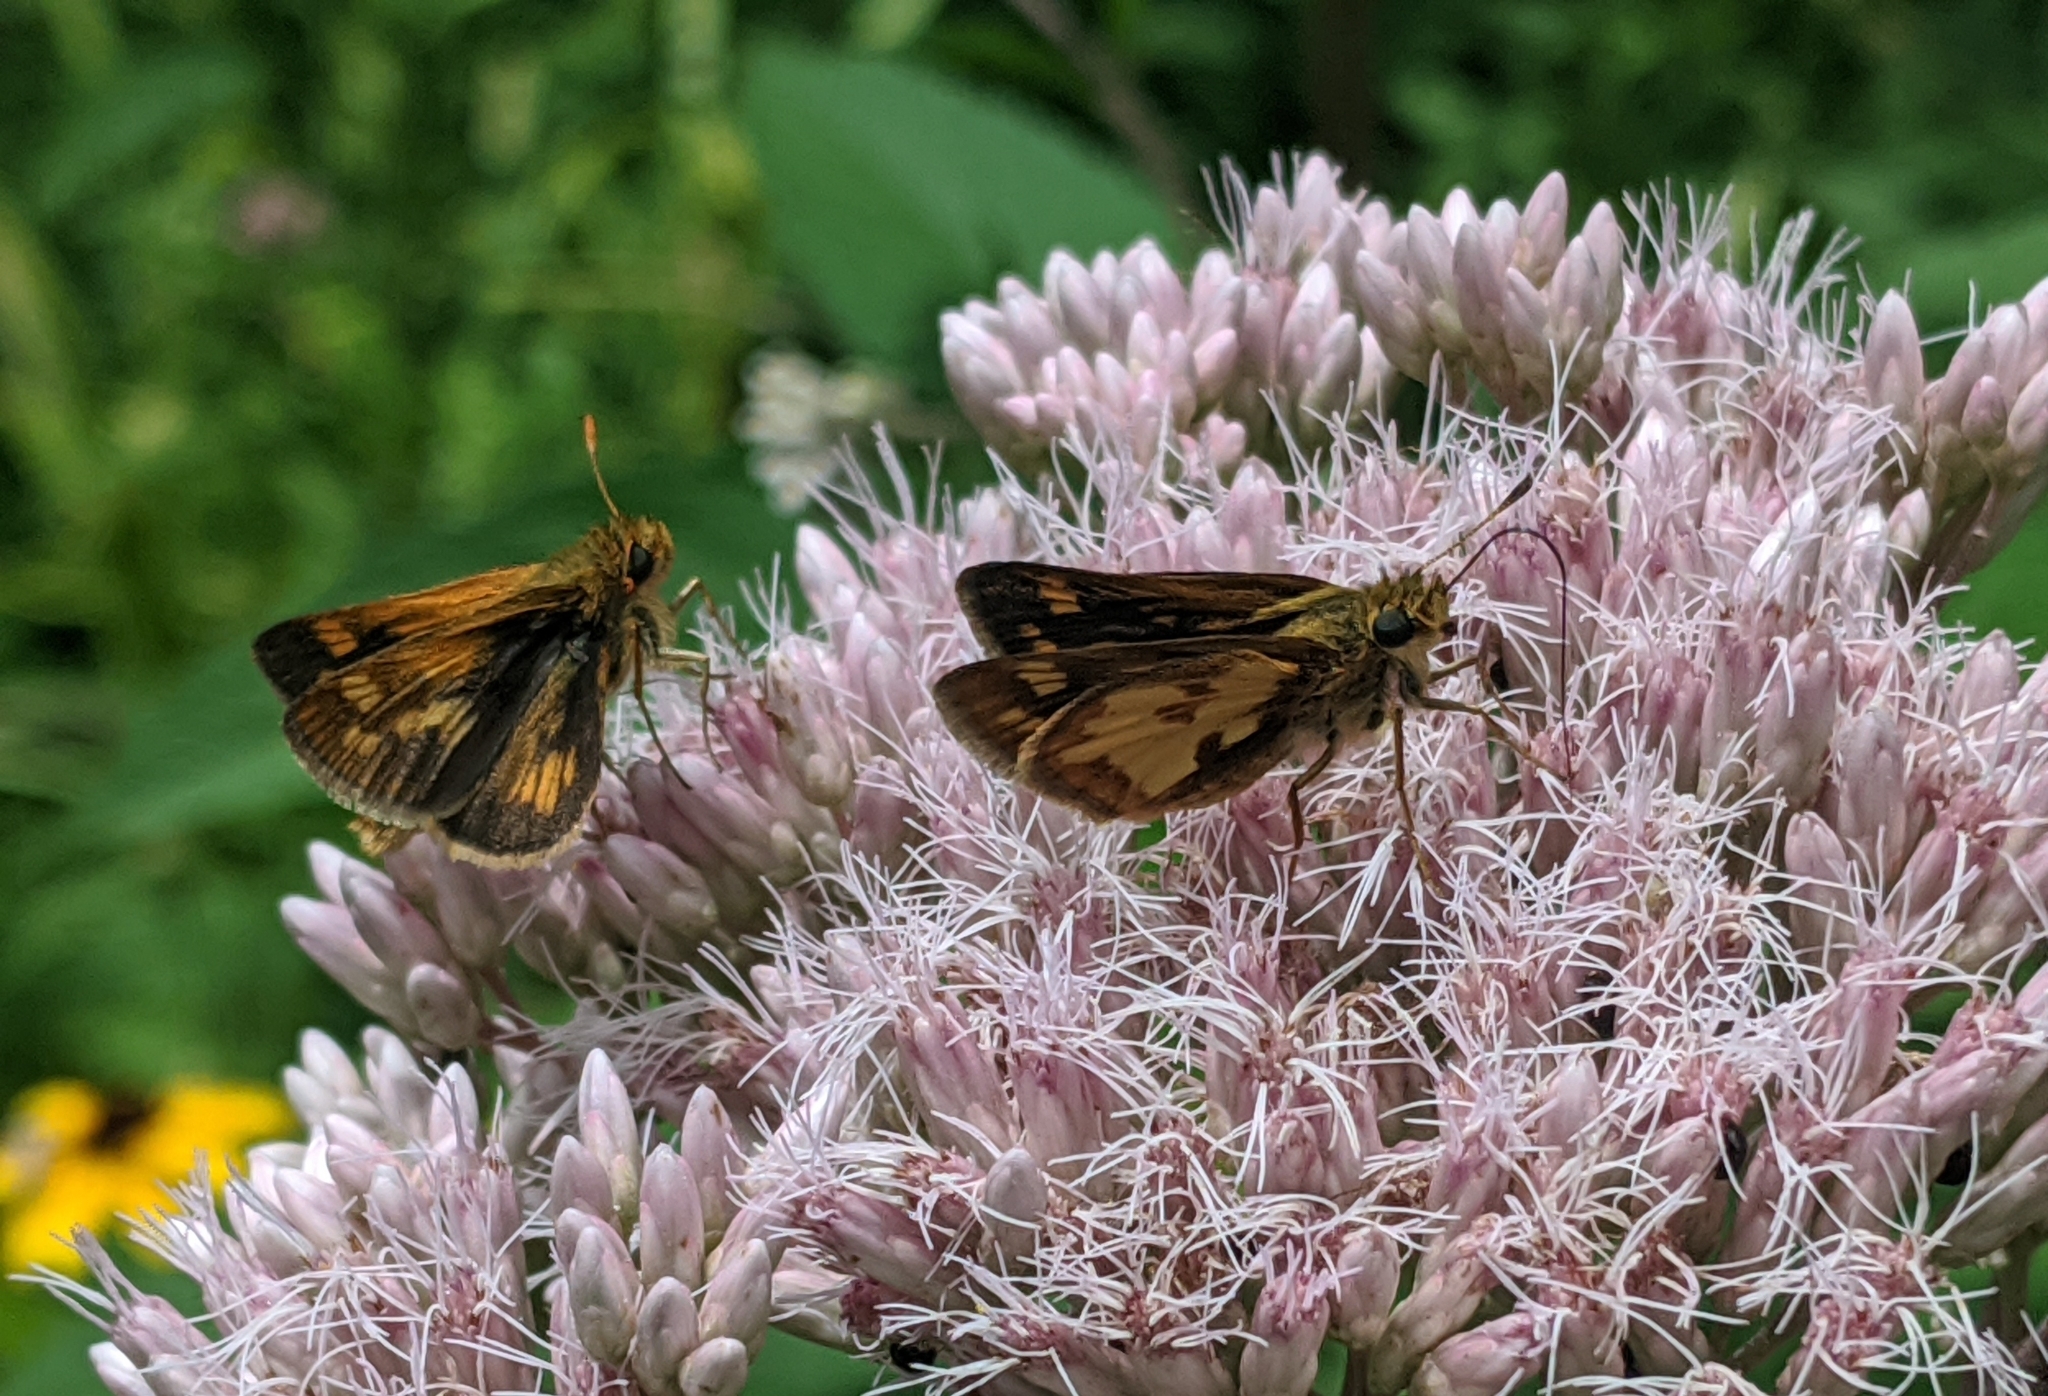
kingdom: Animalia
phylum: Arthropoda
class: Insecta
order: Lepidoptera
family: Hesperiidae
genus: Polites
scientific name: Polites coras
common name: Peck's skipper
